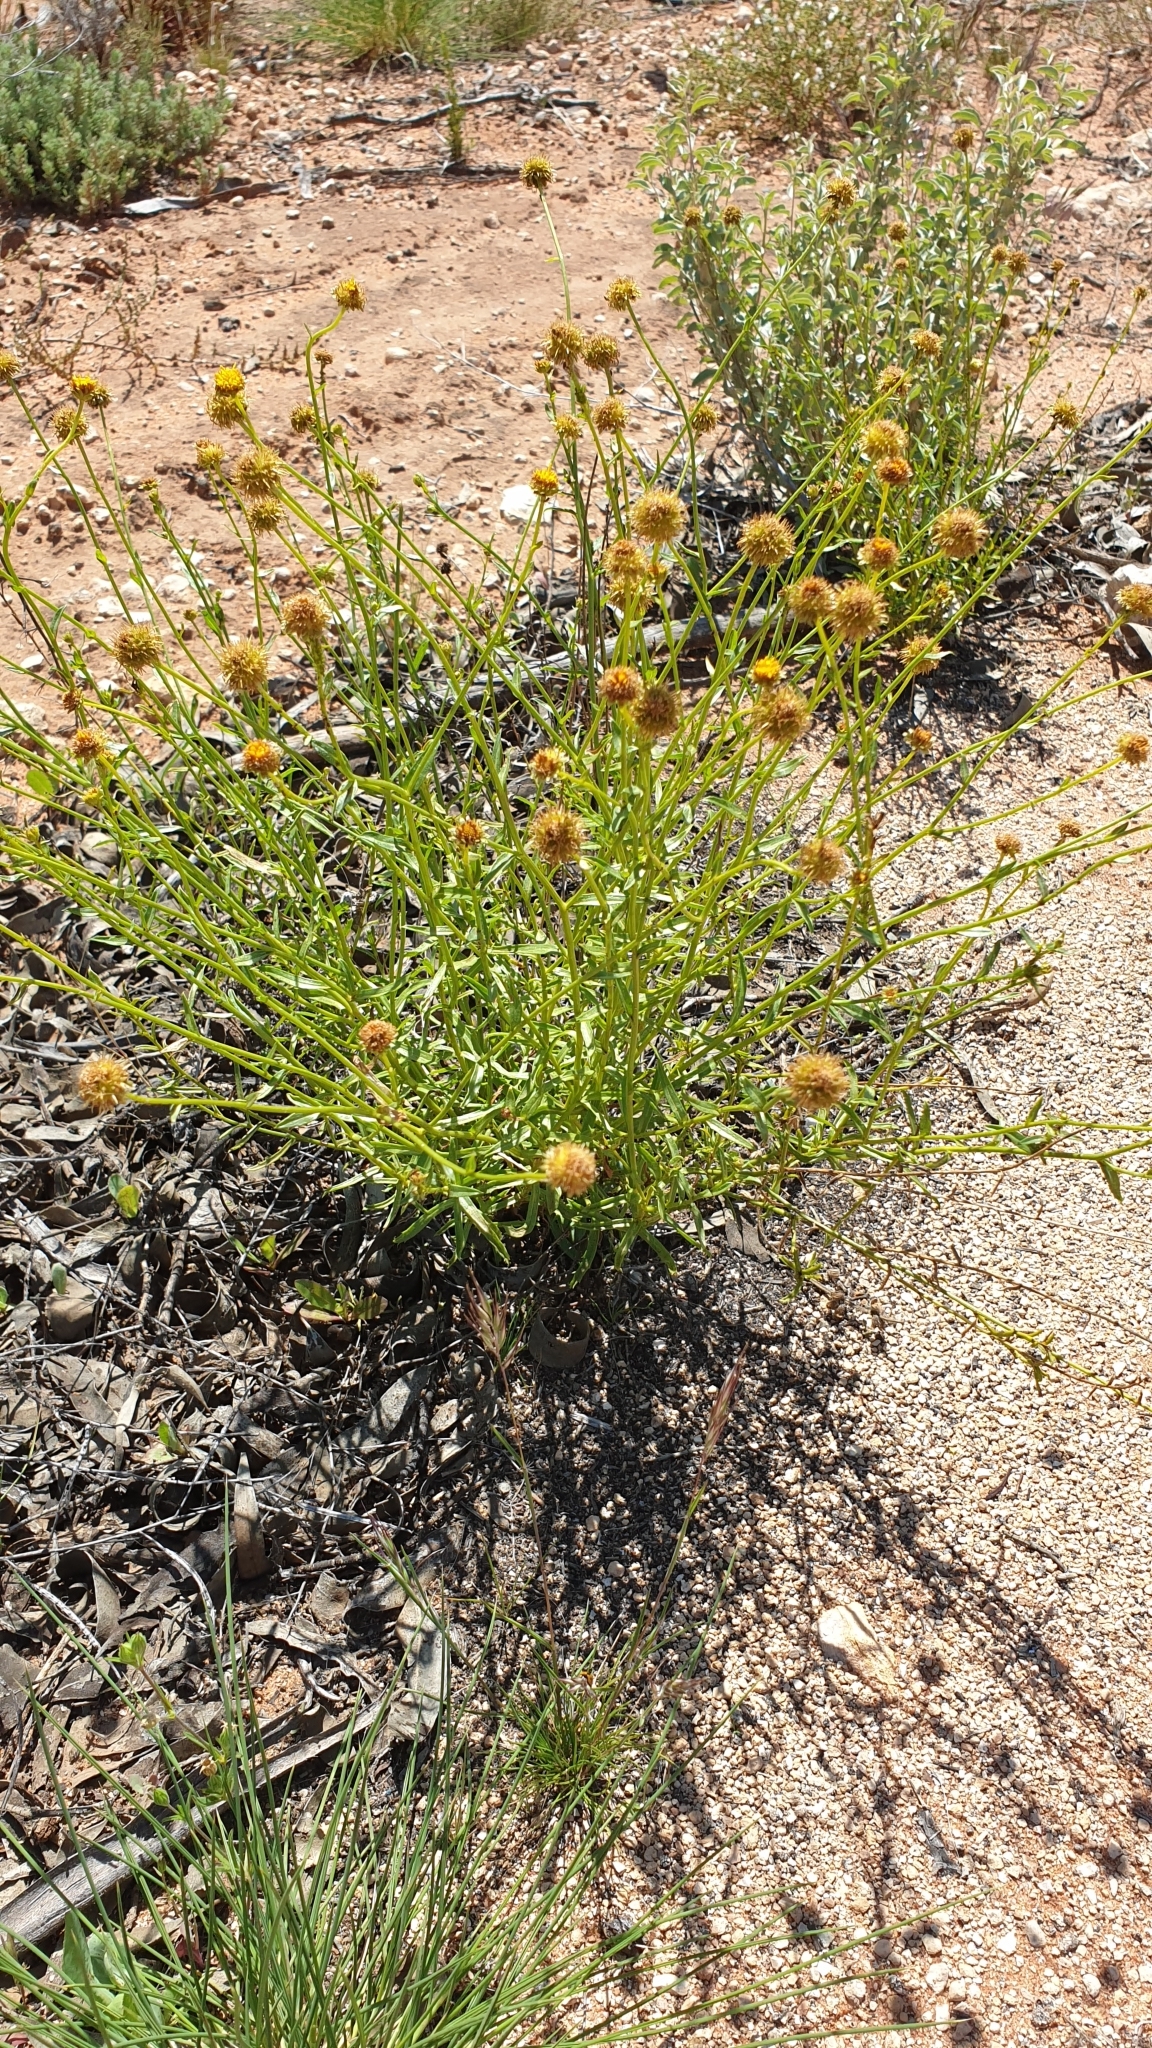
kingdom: Plantae
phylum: Tracheophyta
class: Magnoliopsida
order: Asterales
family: Asteraceae
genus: Calotis
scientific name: Calotis erinacea
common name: Tangled bur daisy
